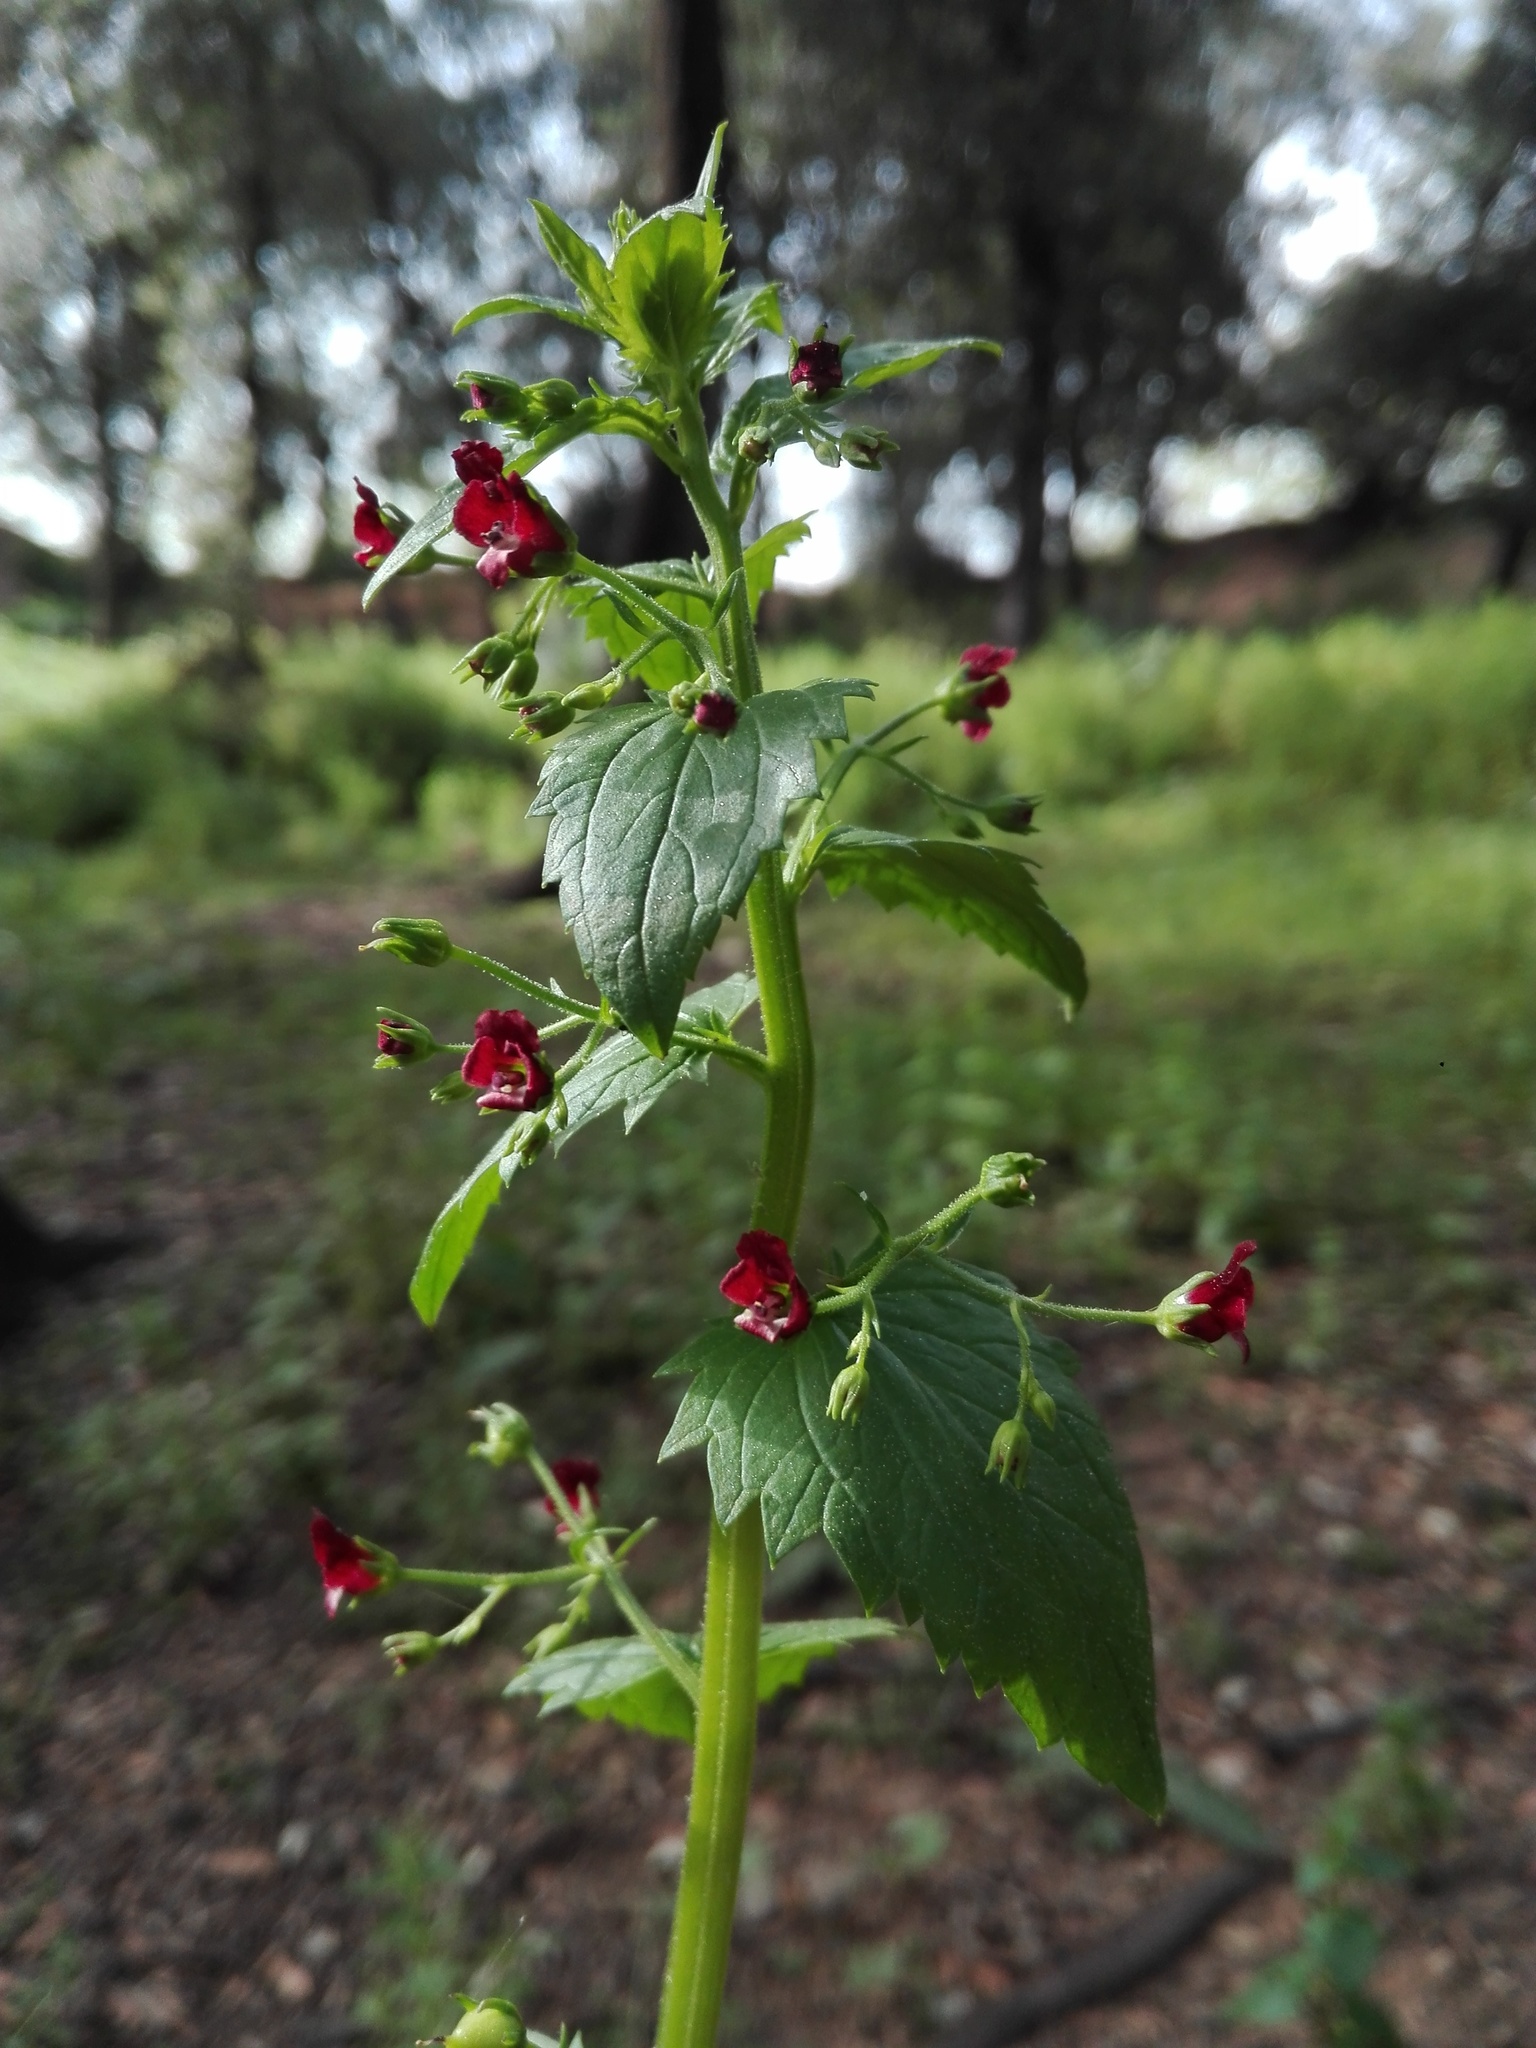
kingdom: Plantae
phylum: Tracheophyta
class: Magnoliopsida
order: Lamiales
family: Scrophulariaceae
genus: Scrophularia
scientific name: Scrophularia peregrina
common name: Mediterranean figwort
